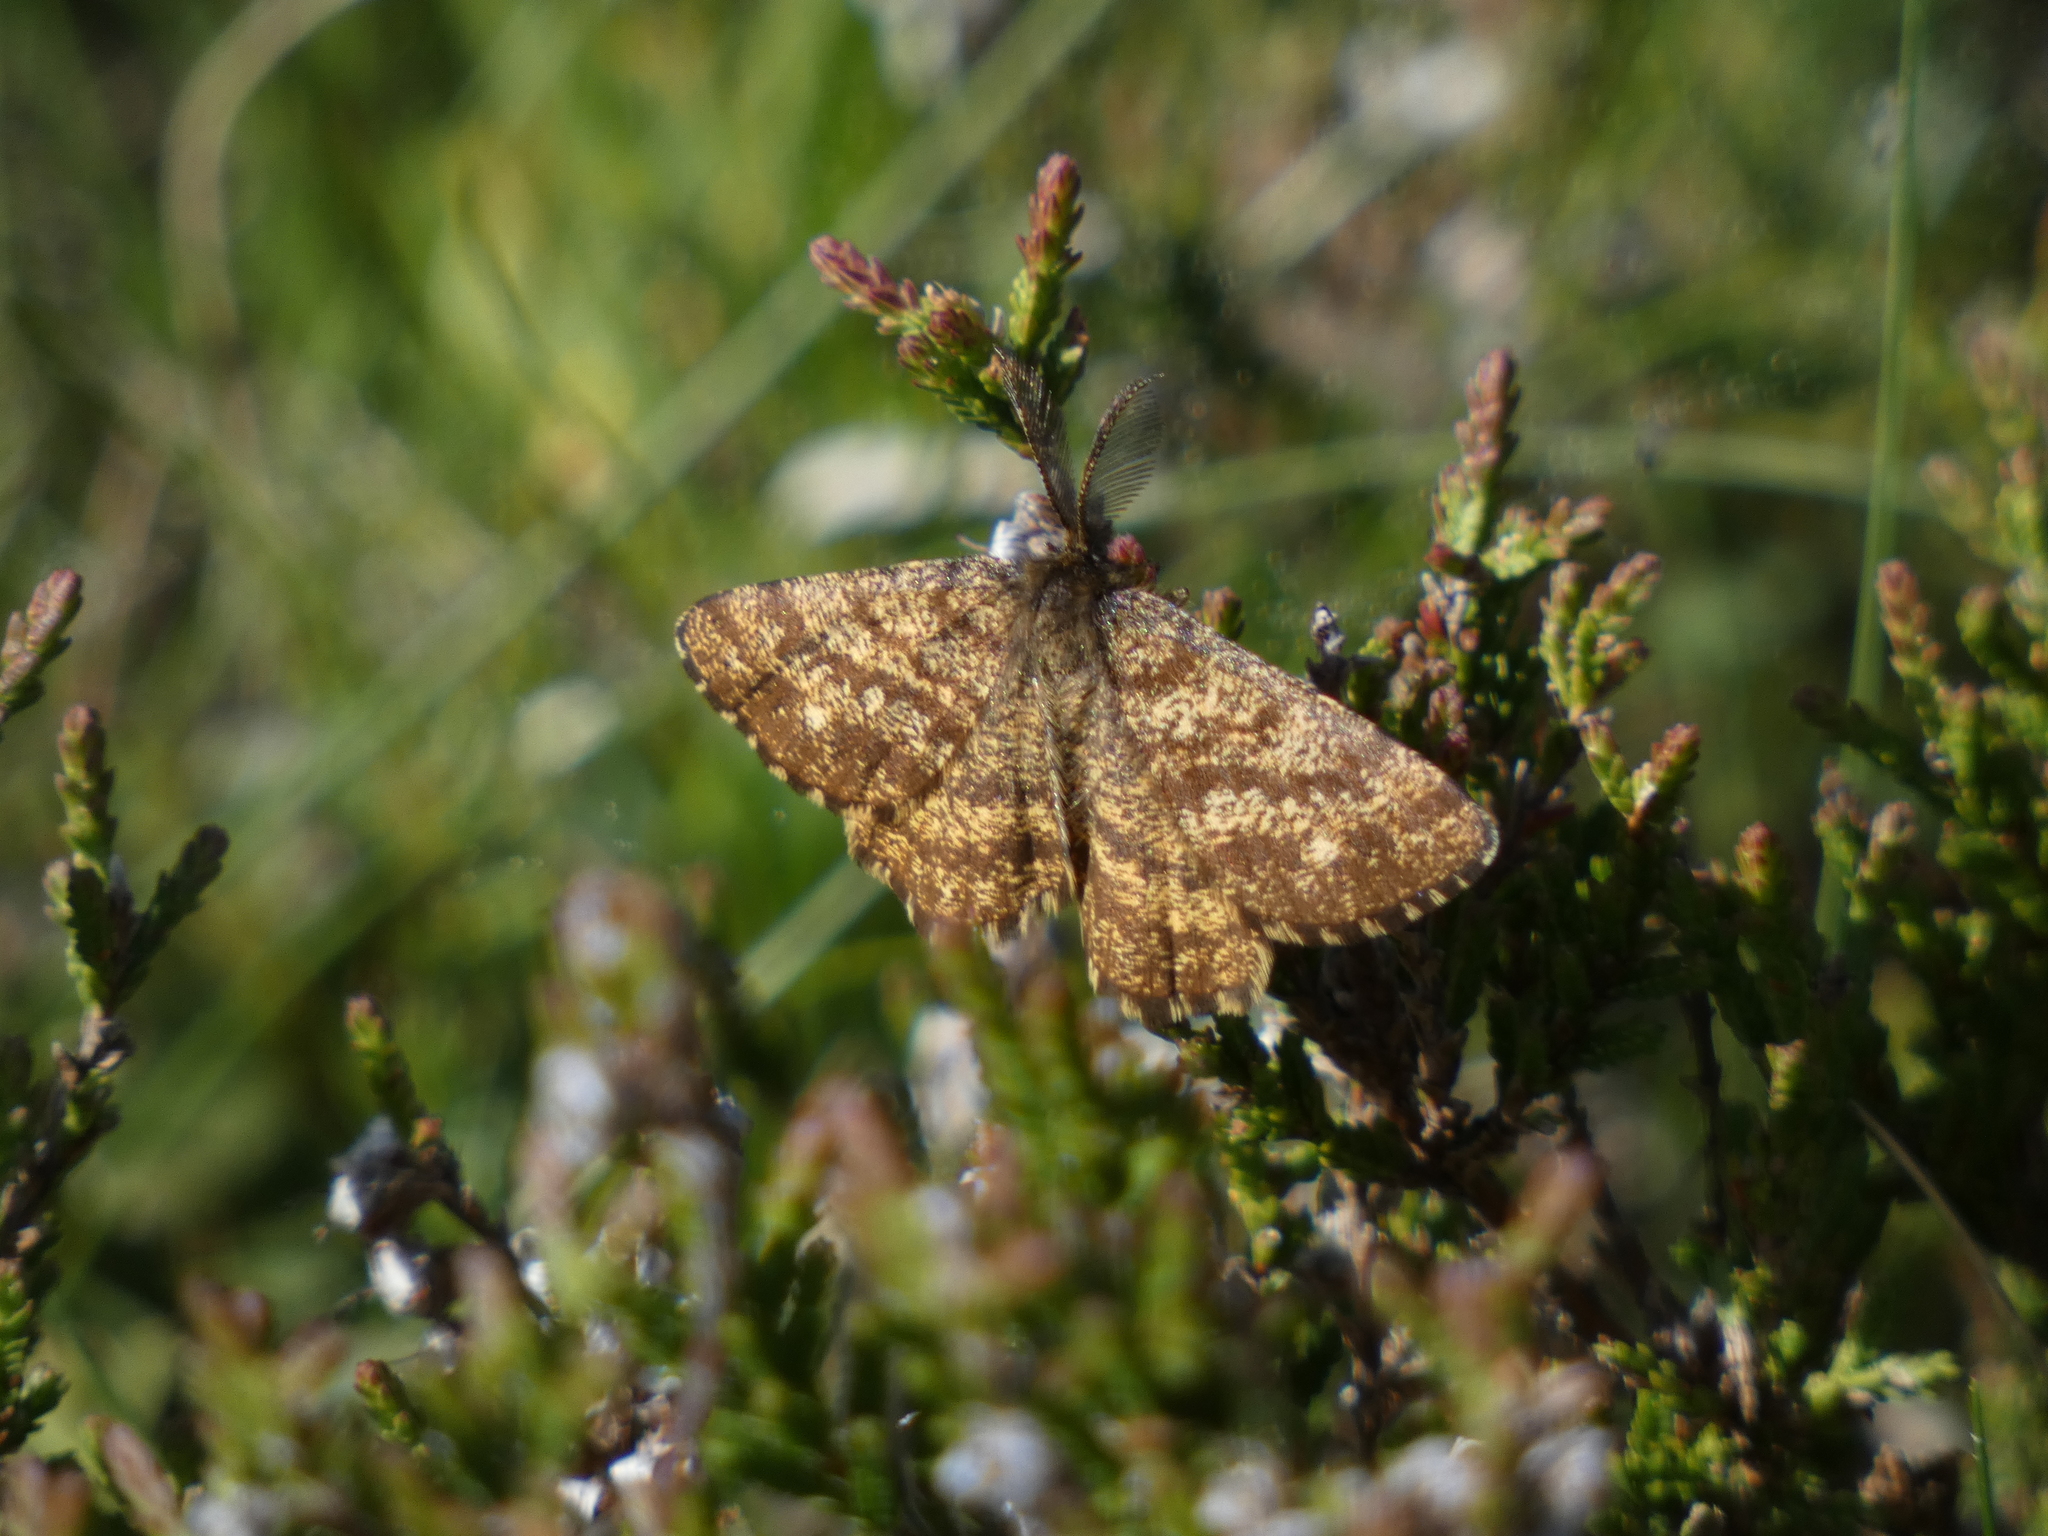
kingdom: Animalia
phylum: Arthropoda
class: Insecta
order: Lepidoptera
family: Geometridae
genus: Ematurga
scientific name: Ematurga atomaria
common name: Common heath
